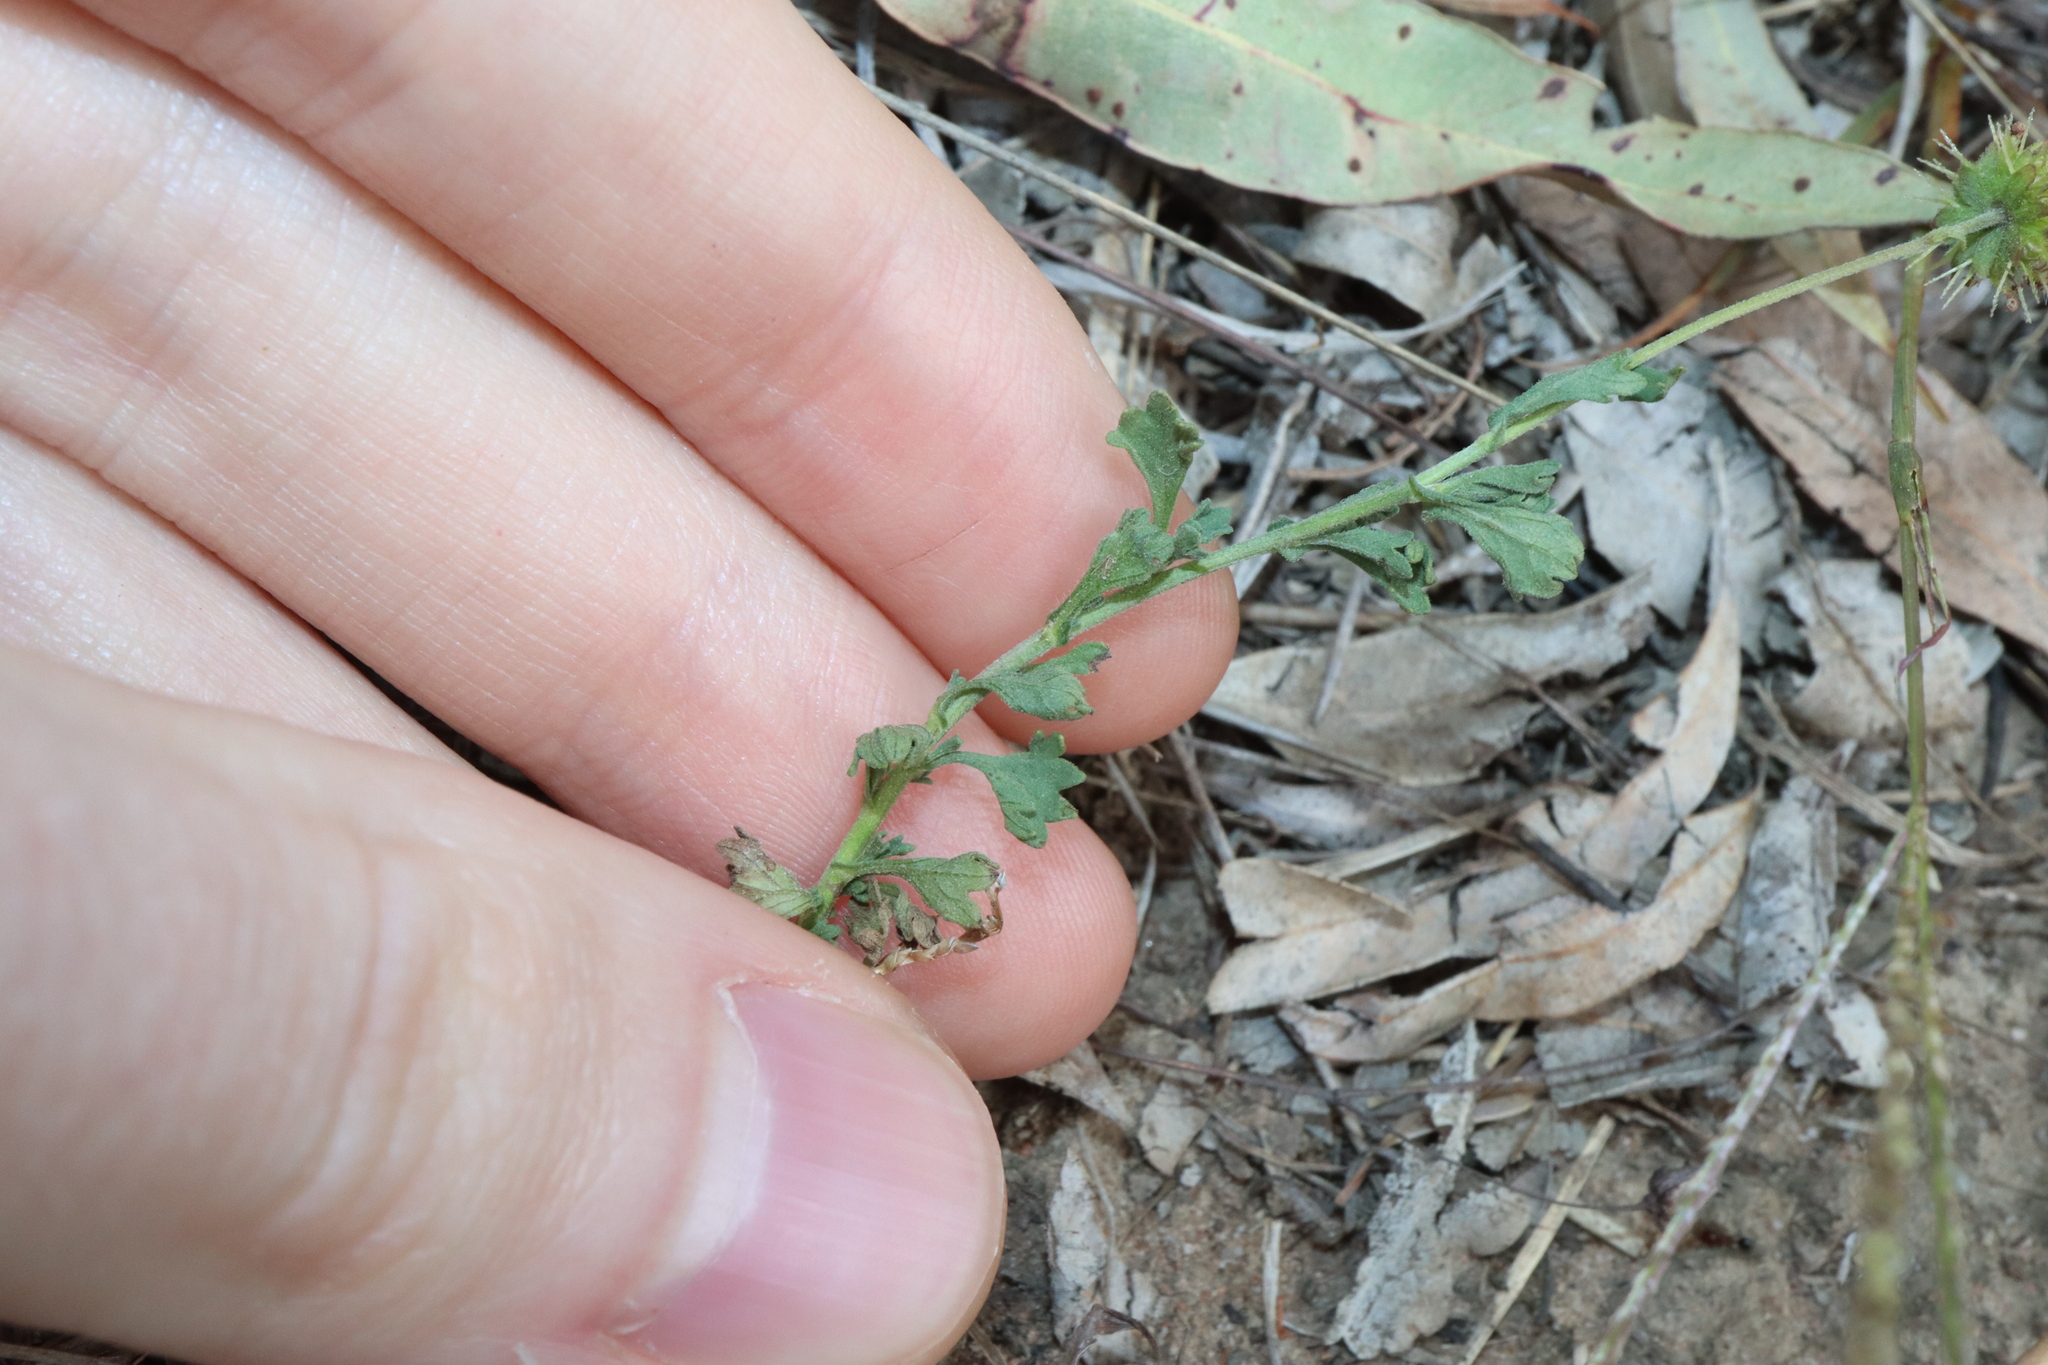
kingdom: Plantae
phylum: Tracheophyta
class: Magnoliopsida
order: Asterales
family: Asteraceae
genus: Calotis
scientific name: Calotis cuneifolia
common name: Bur-daisy
